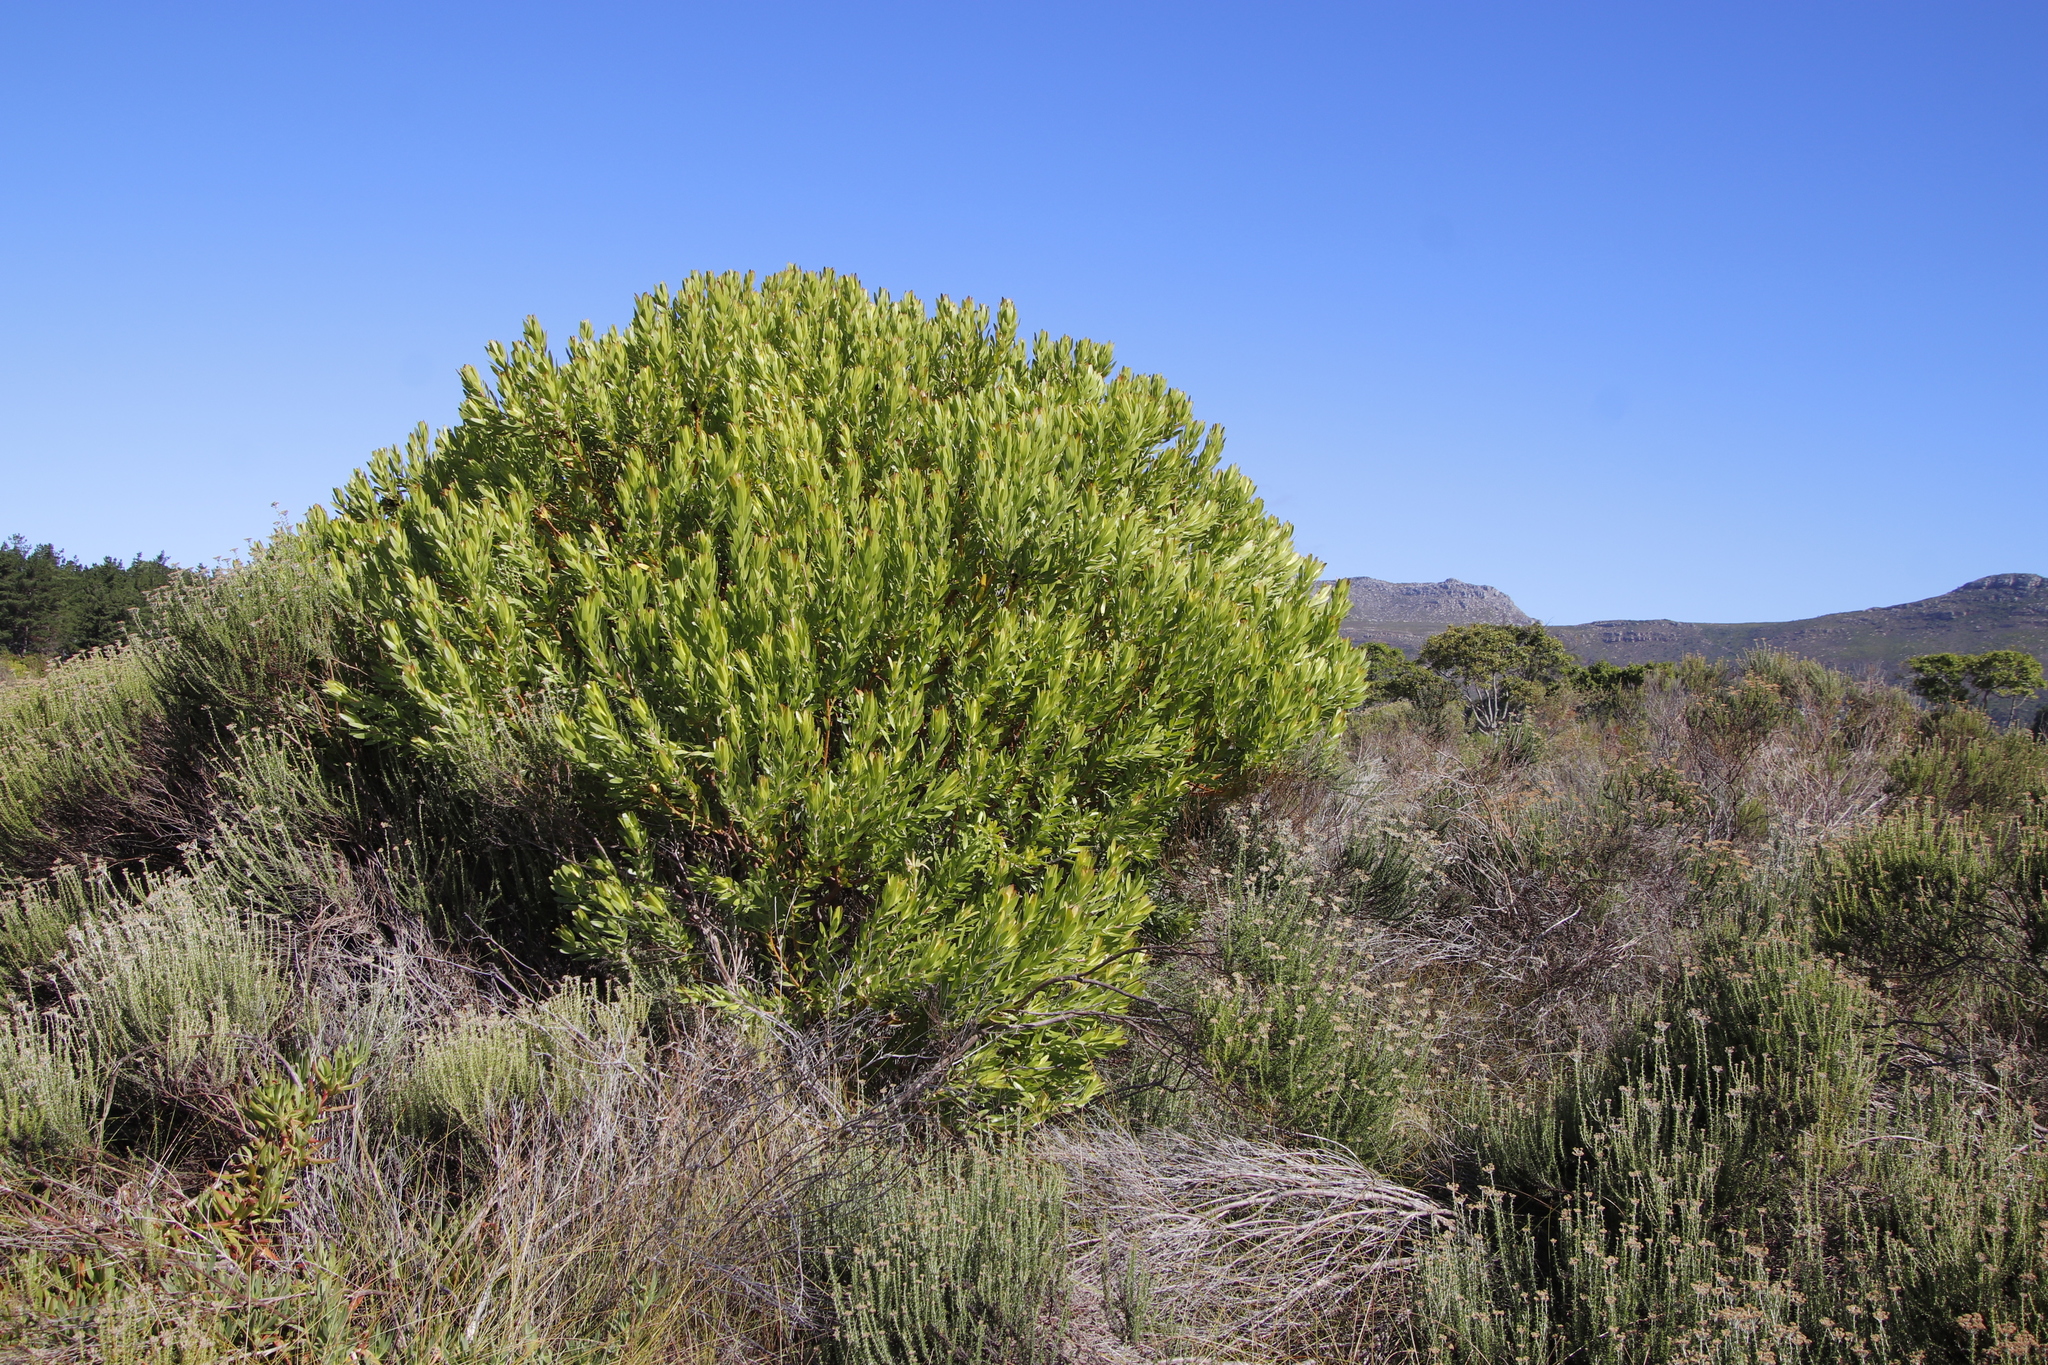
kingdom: Plantae
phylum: Tracheophyta
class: Magnoliopsida
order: Proteales
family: Proteaceae
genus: Leucadendron
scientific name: Leucadendron laureolum
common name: Golden sunshinebush
